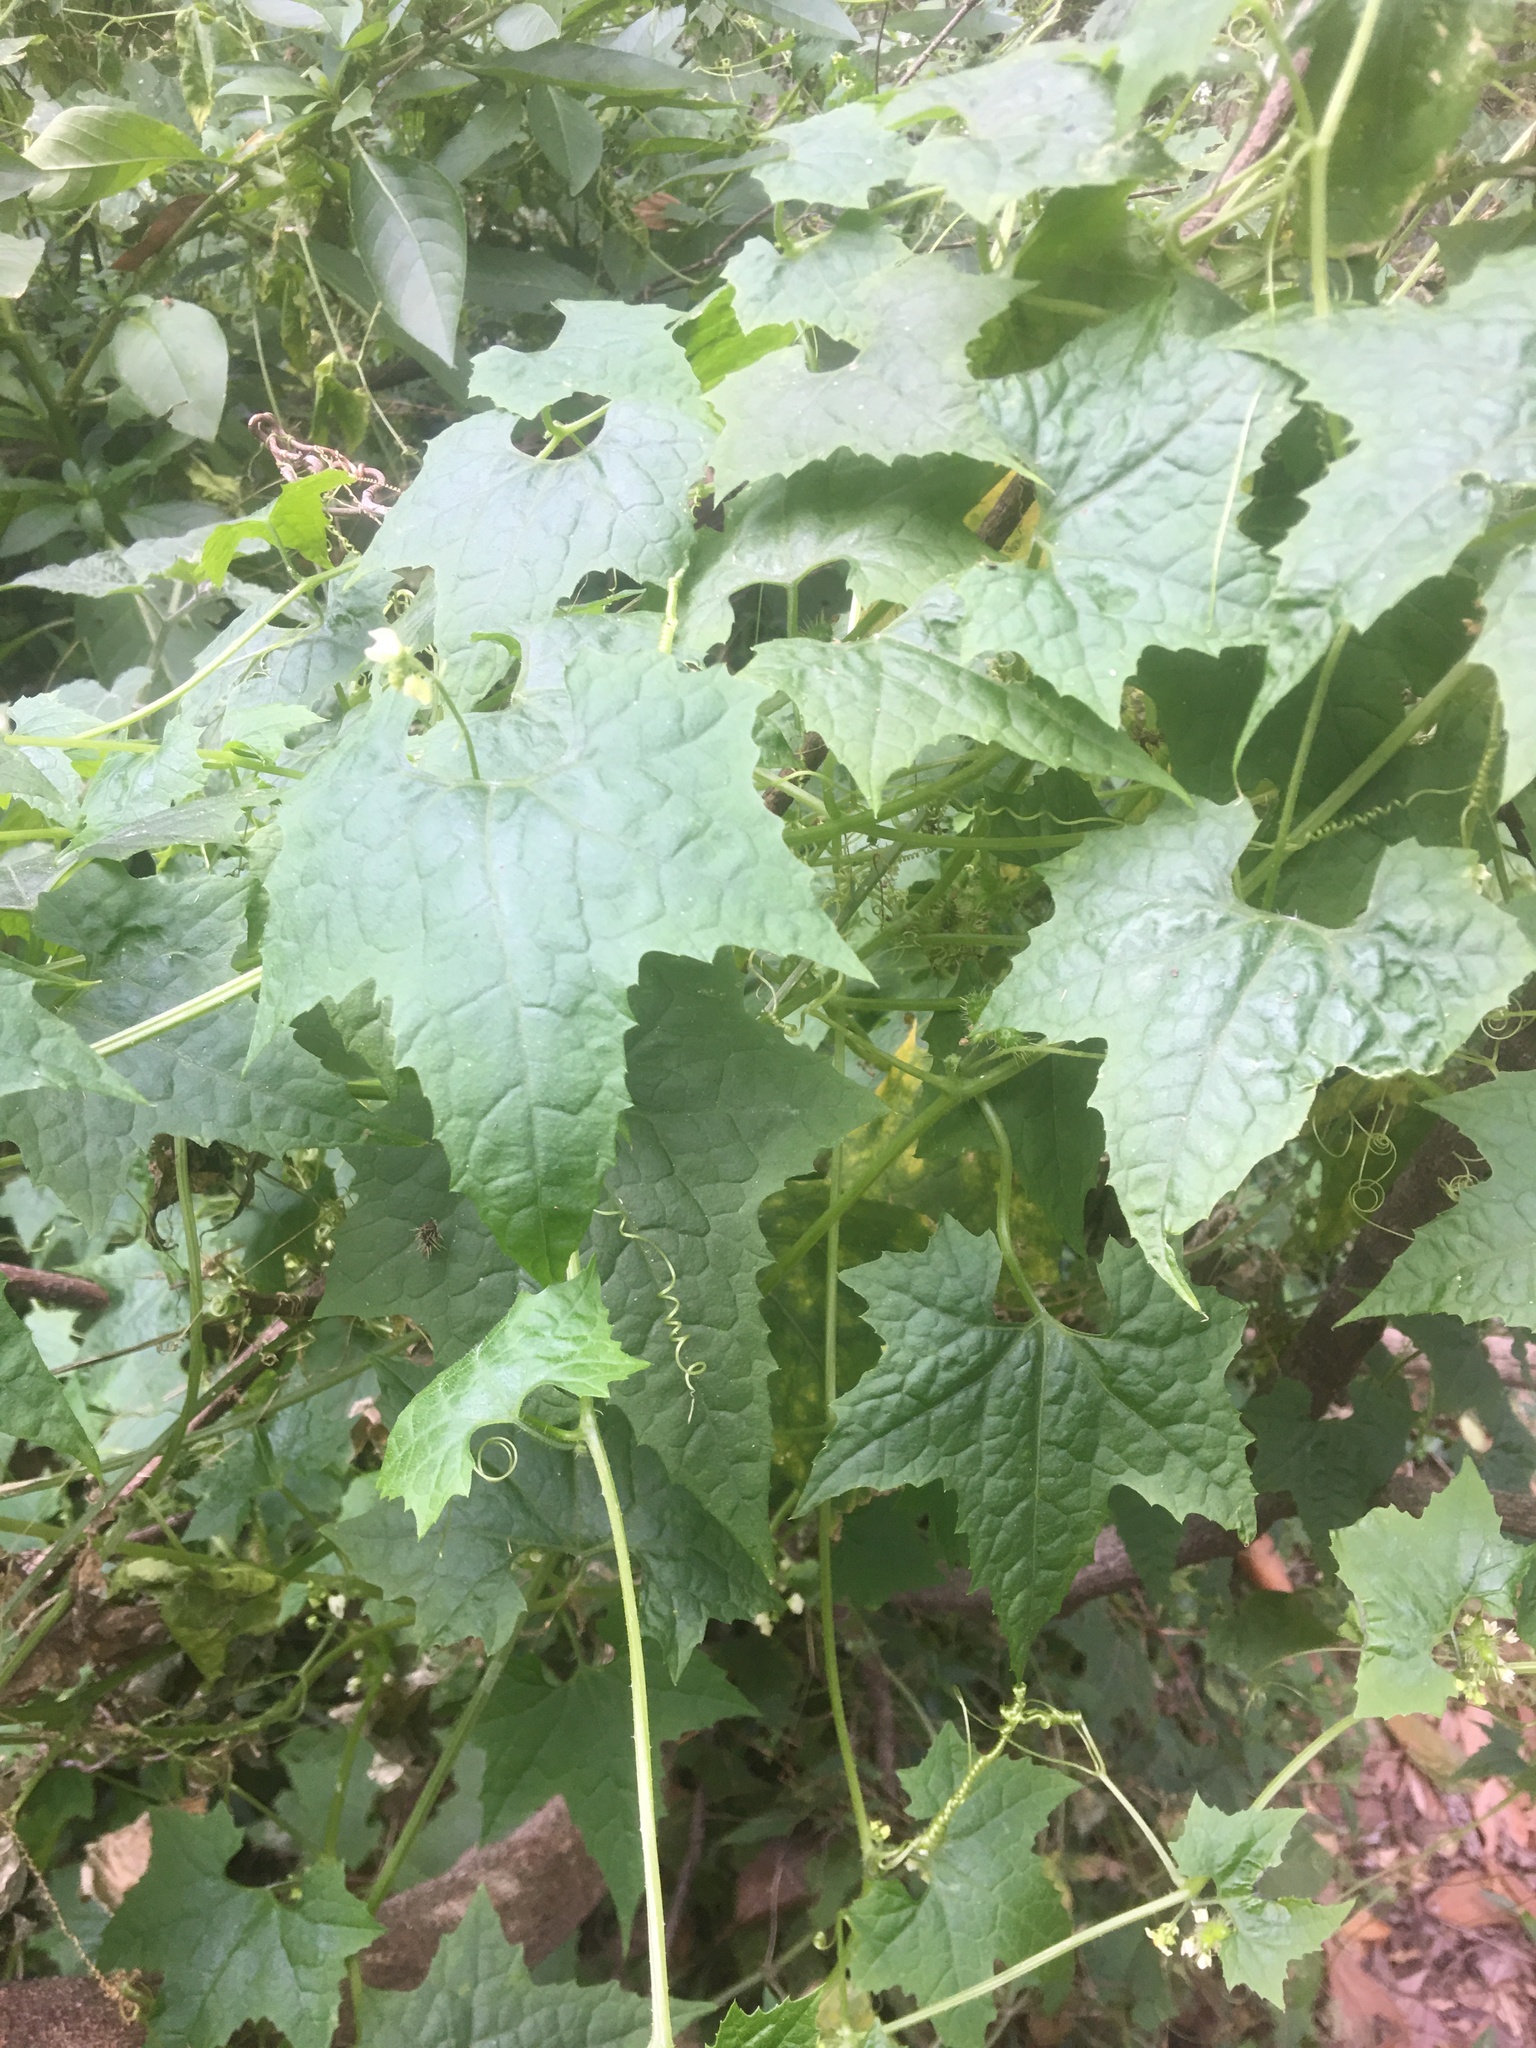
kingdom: Plantae
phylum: Tracheophyta
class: Magnoliopsida
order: Cucurbitales
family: Cucurbitaceae
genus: Sicyos
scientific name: Sicyos australis
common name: Angle-cucumber
